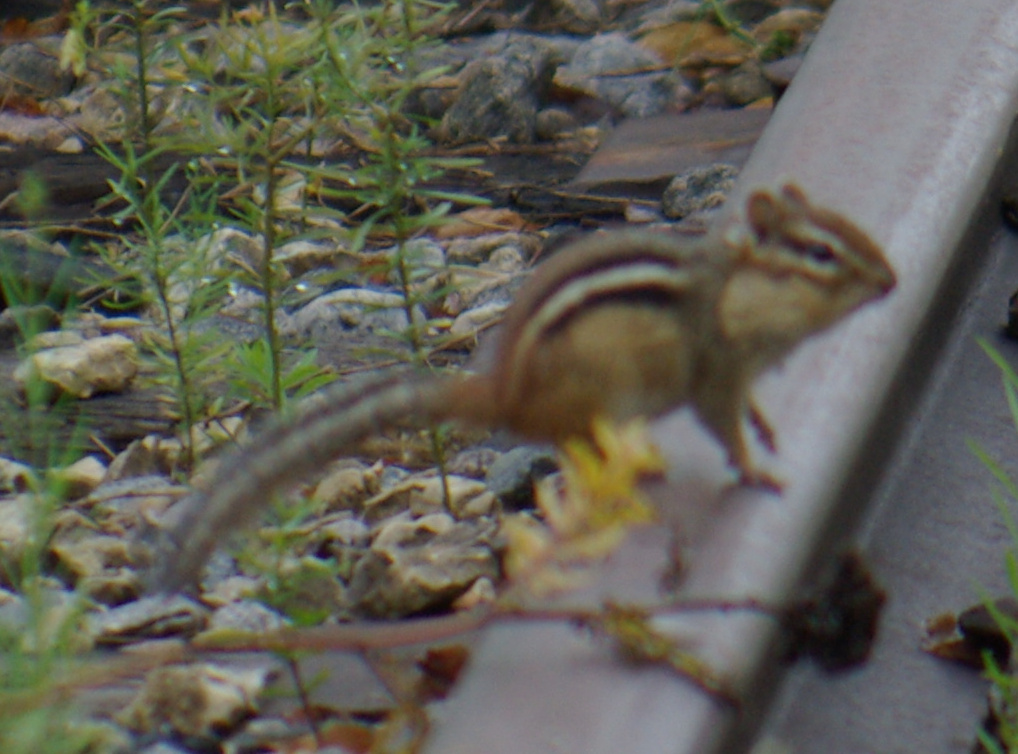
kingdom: Animalia
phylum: Chordata
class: Mammalia
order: Rodentia
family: Sciuridae
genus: Tamias
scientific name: Tamias striatus
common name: Eastern chipmunk
